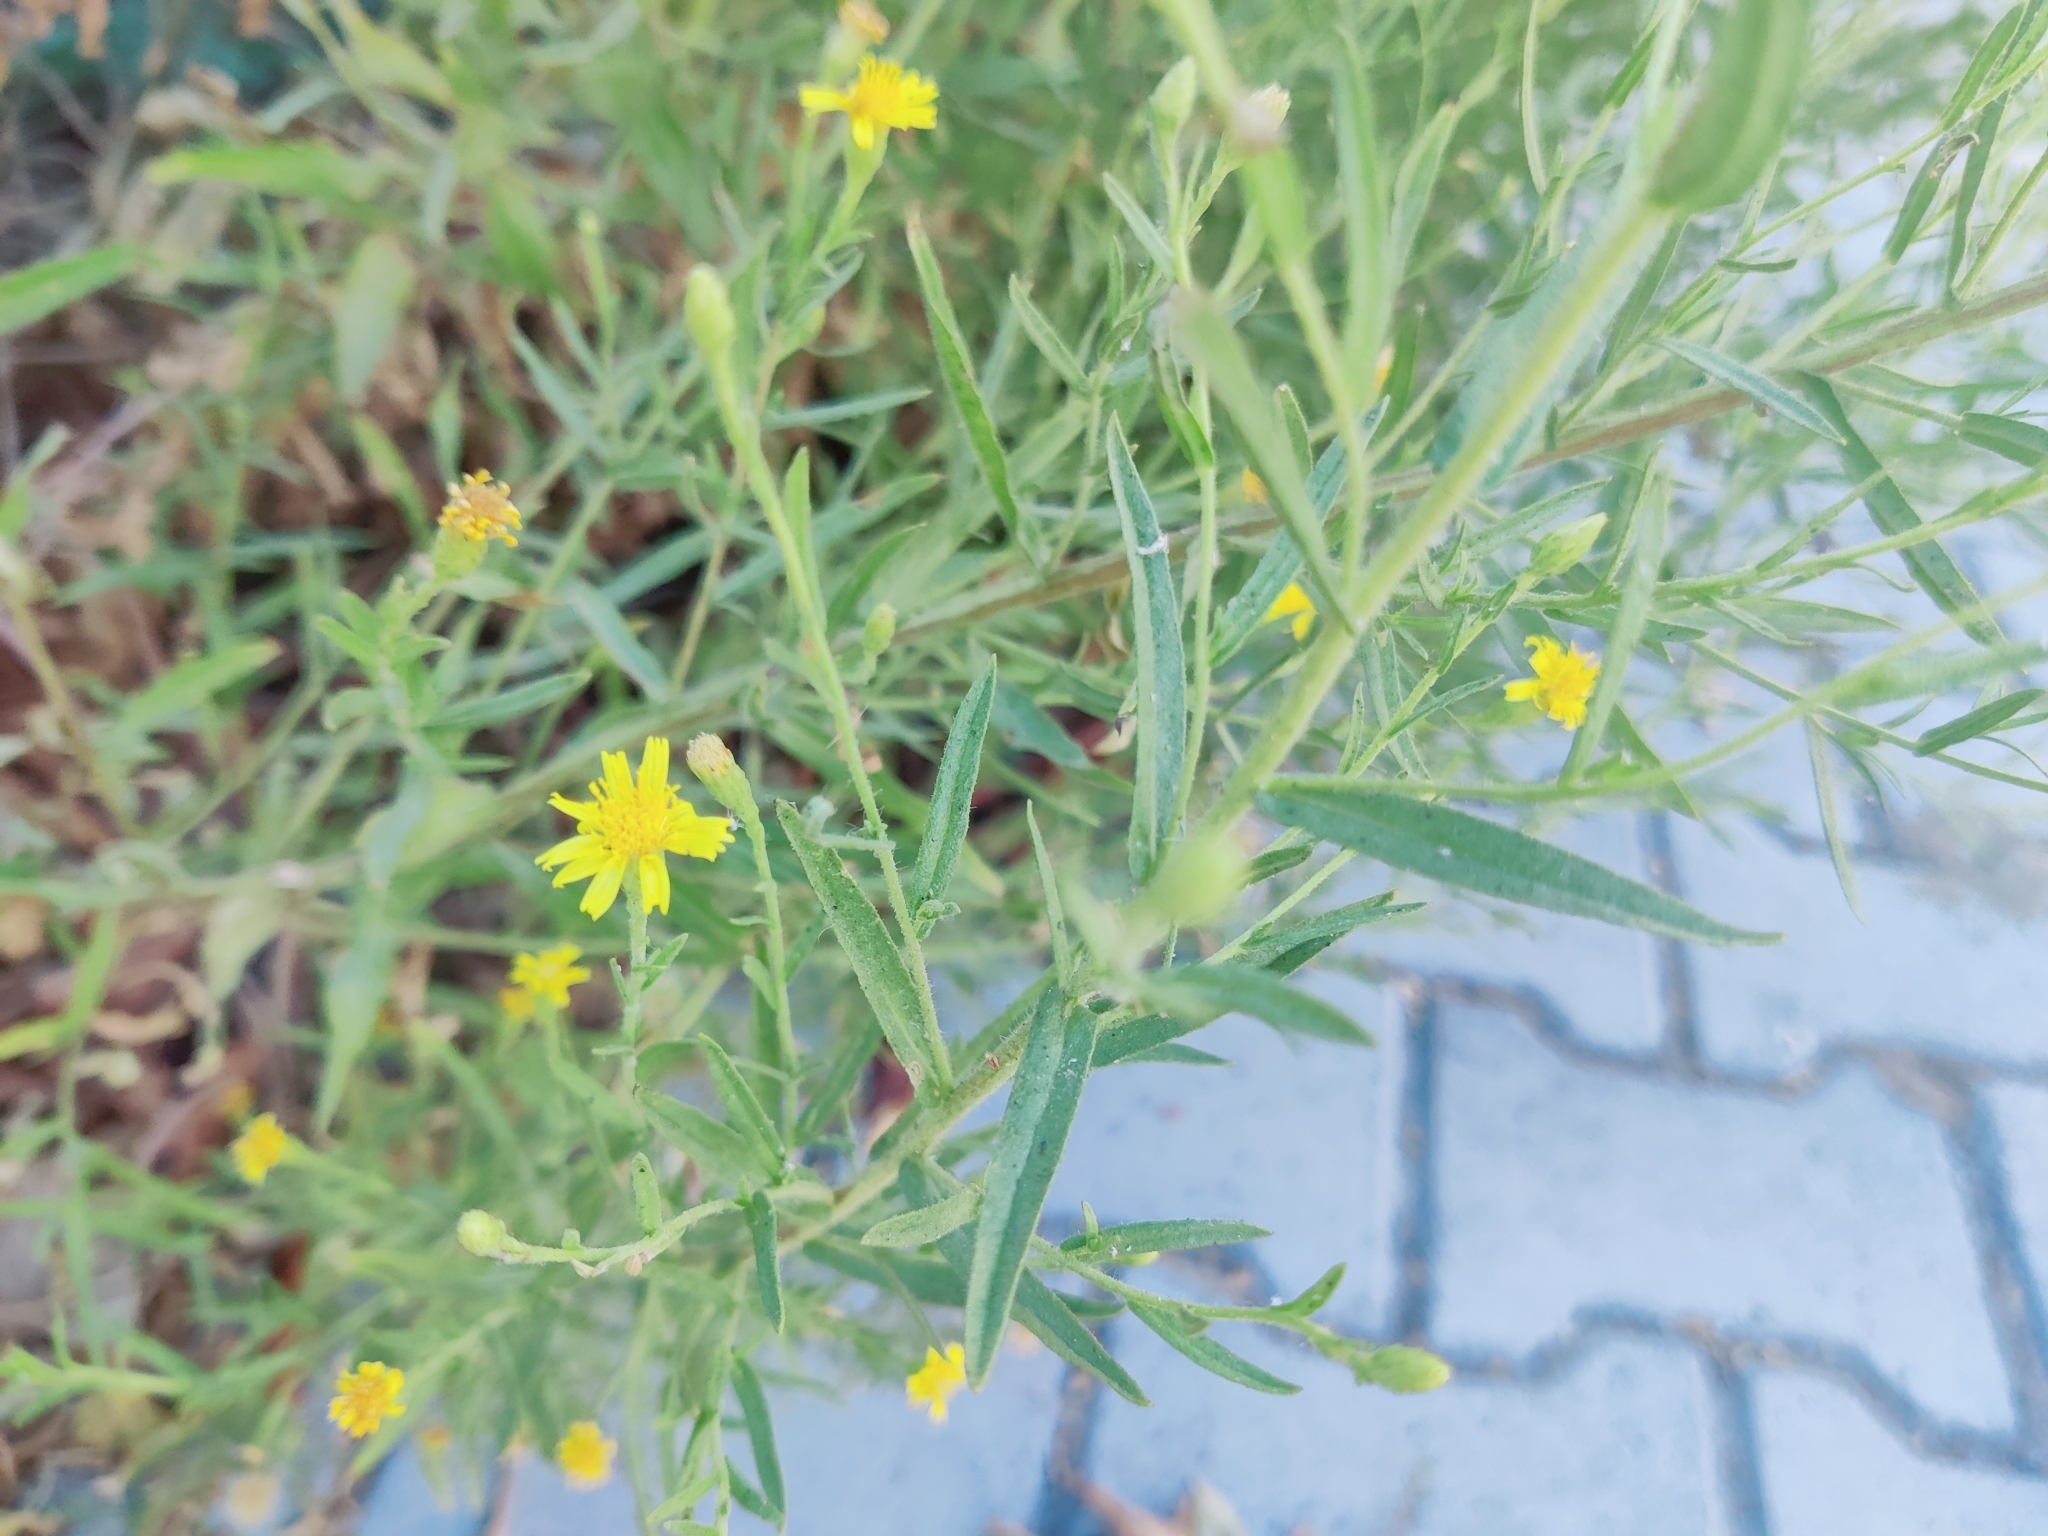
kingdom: Plantae
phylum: Tracheophyta
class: Magnoliopsida
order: Asterales
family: Asteraceae
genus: Dittrichia
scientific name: Dittrichia viscosa
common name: Woody fleabane
